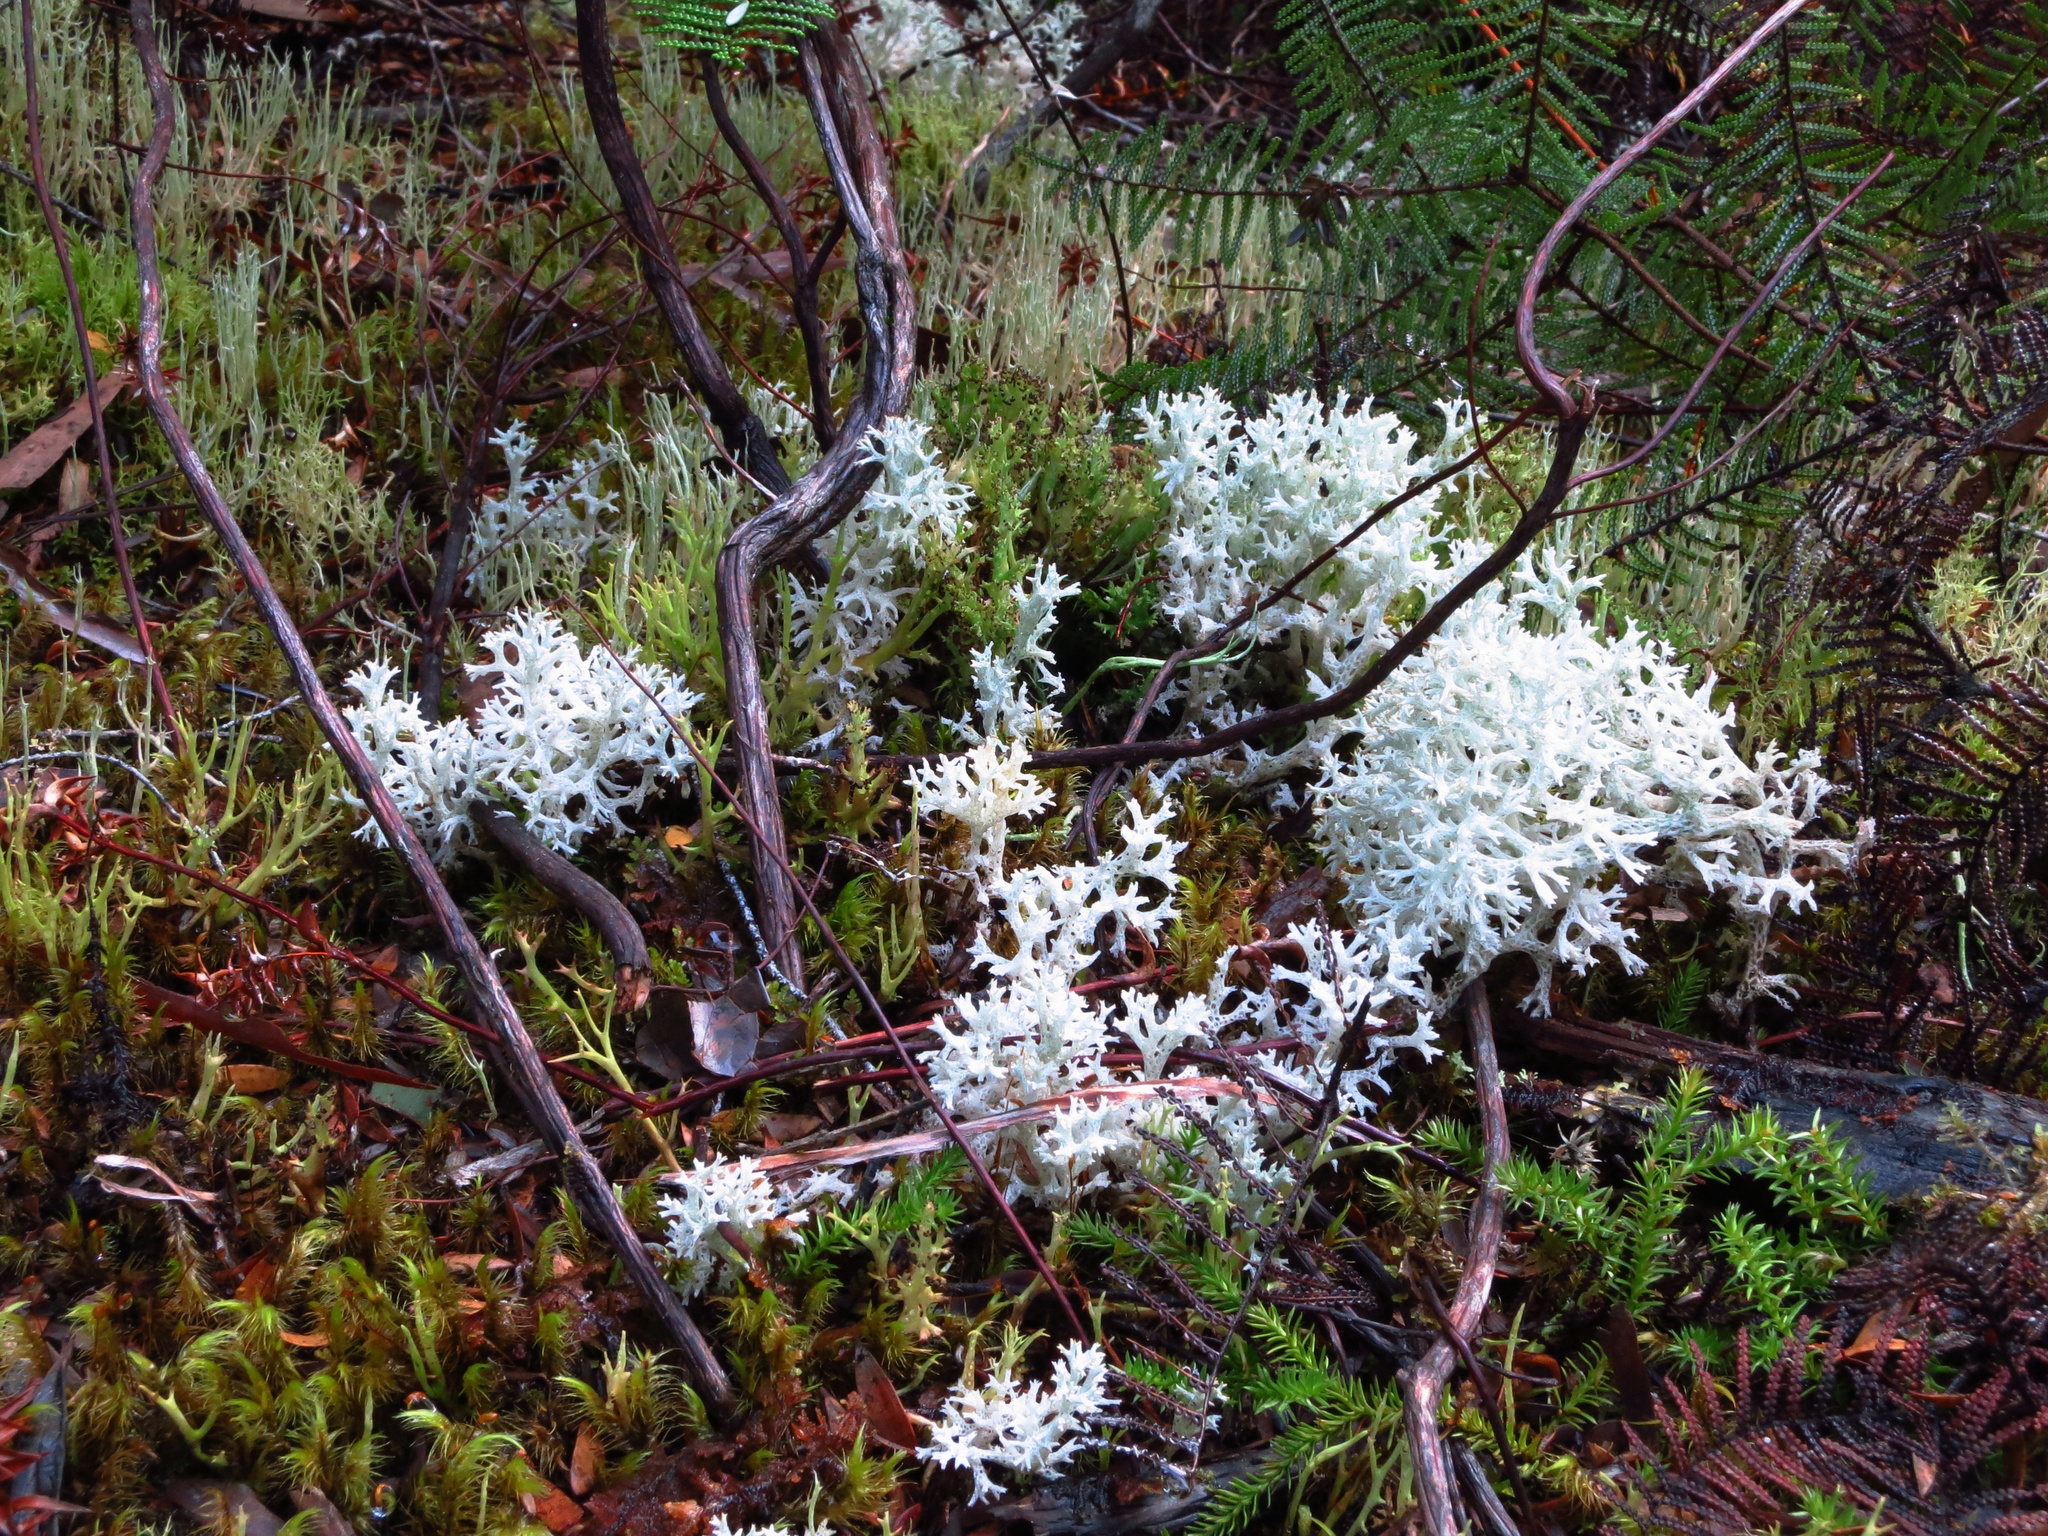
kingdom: Fungi
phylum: Ascomycota
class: Lecanoromycetes
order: Lecanorales
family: Cladoniaceae
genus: Pulchrocladia
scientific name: Pulchrocladia retipora
